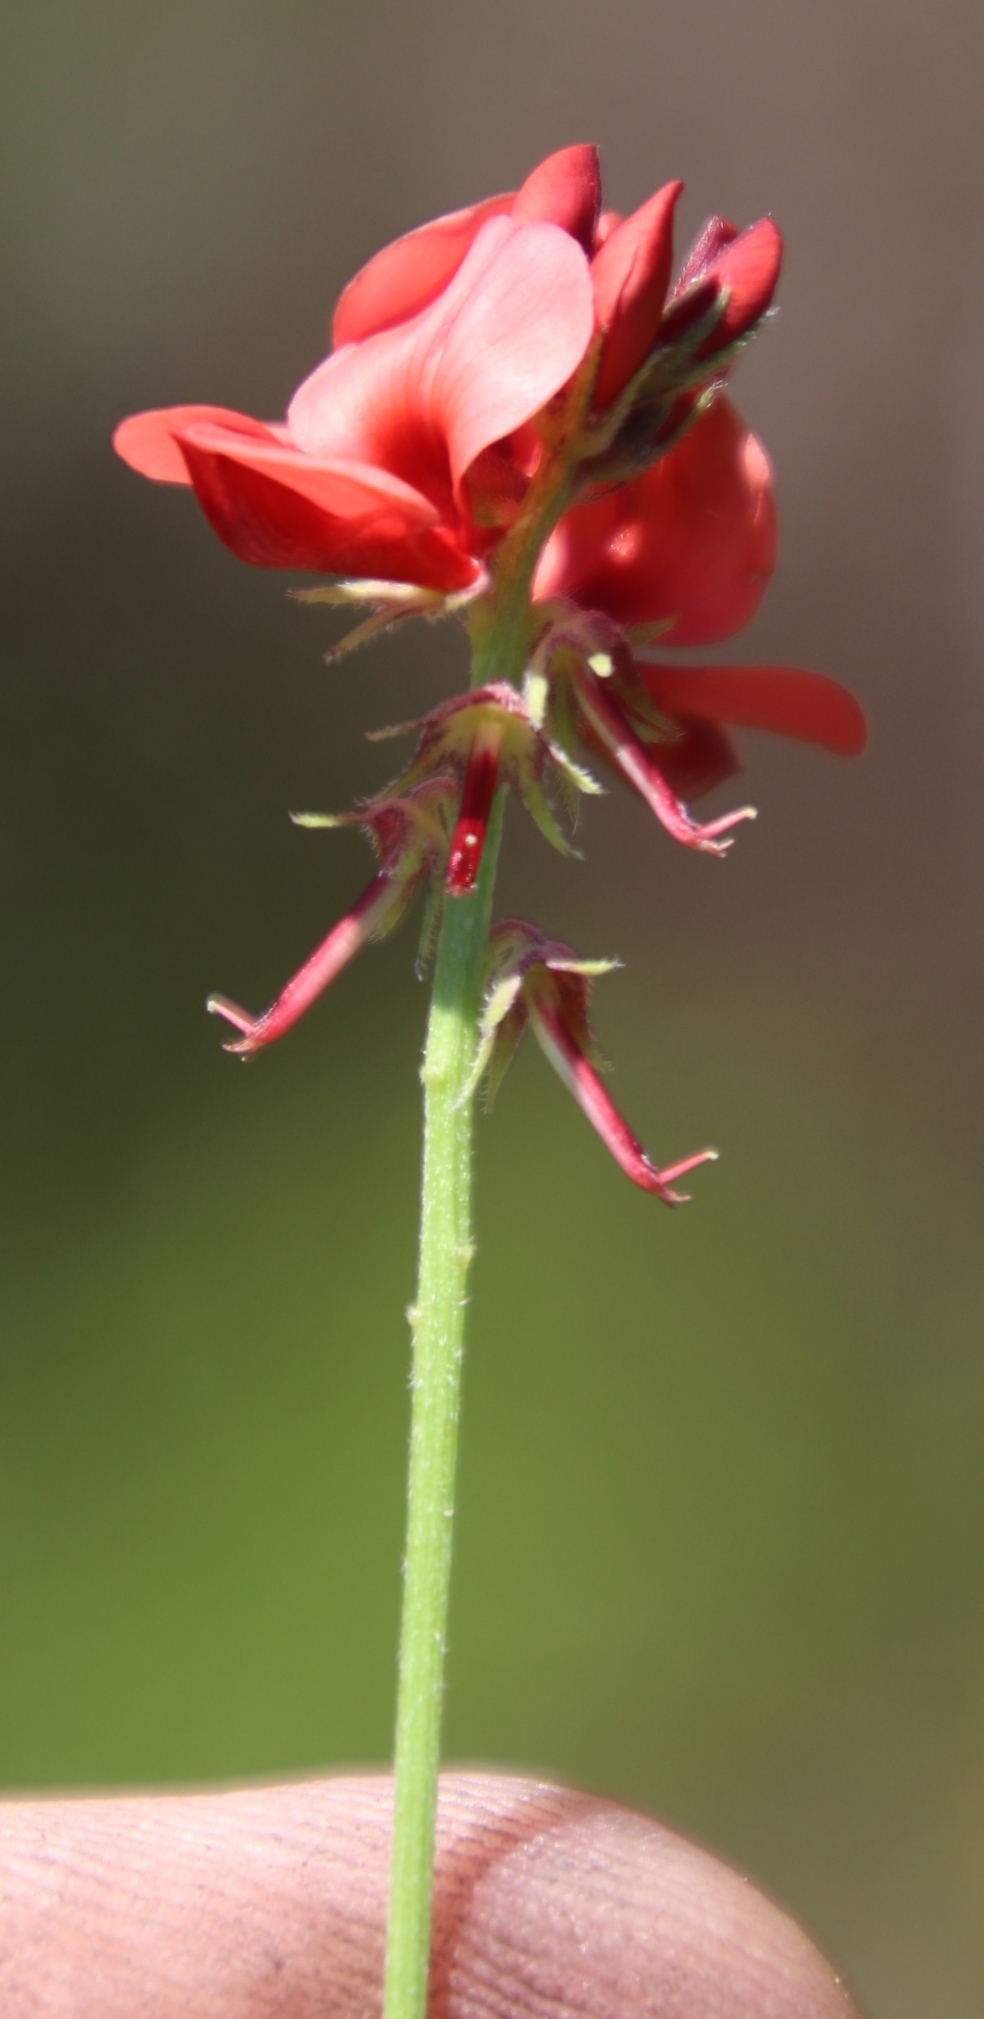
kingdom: Plantae
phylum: Tracheophyta
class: Magnoliopsida
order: Fabales
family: Fabaceae
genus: Indigofera
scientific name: Indigofera digitata
